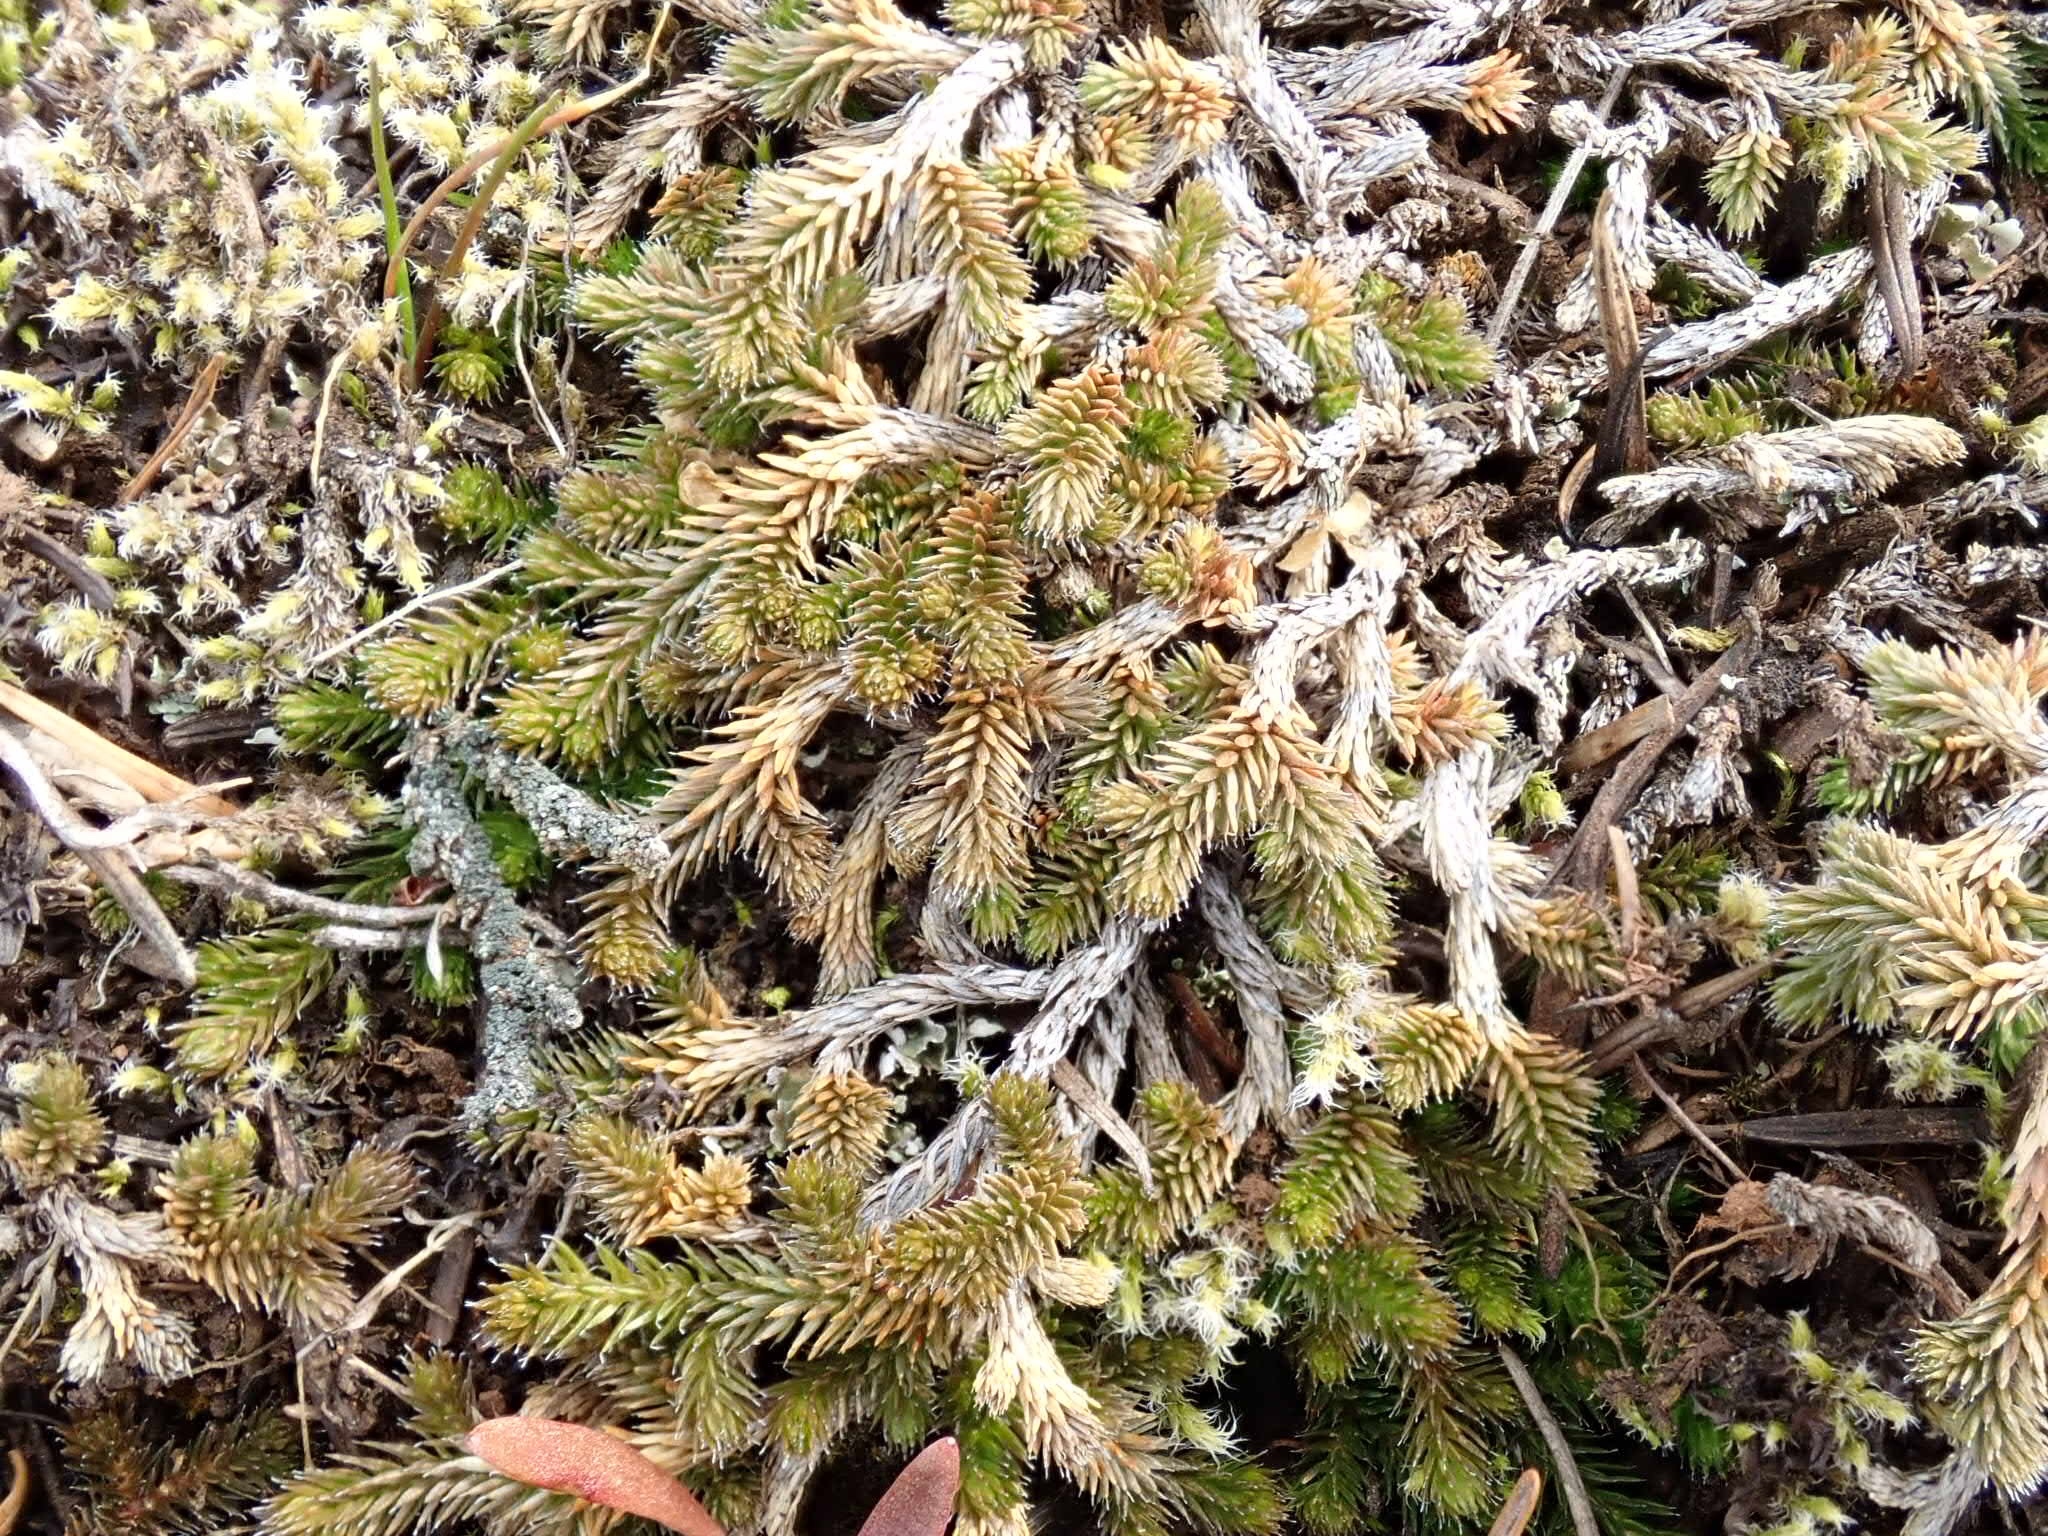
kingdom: Plantae
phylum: Tracheophyta
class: Lycopodiopsida
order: Selaginellales
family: Selaginellaceae
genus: Selaginella
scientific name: Selaginella wallacei
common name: Wallace's selaginella
